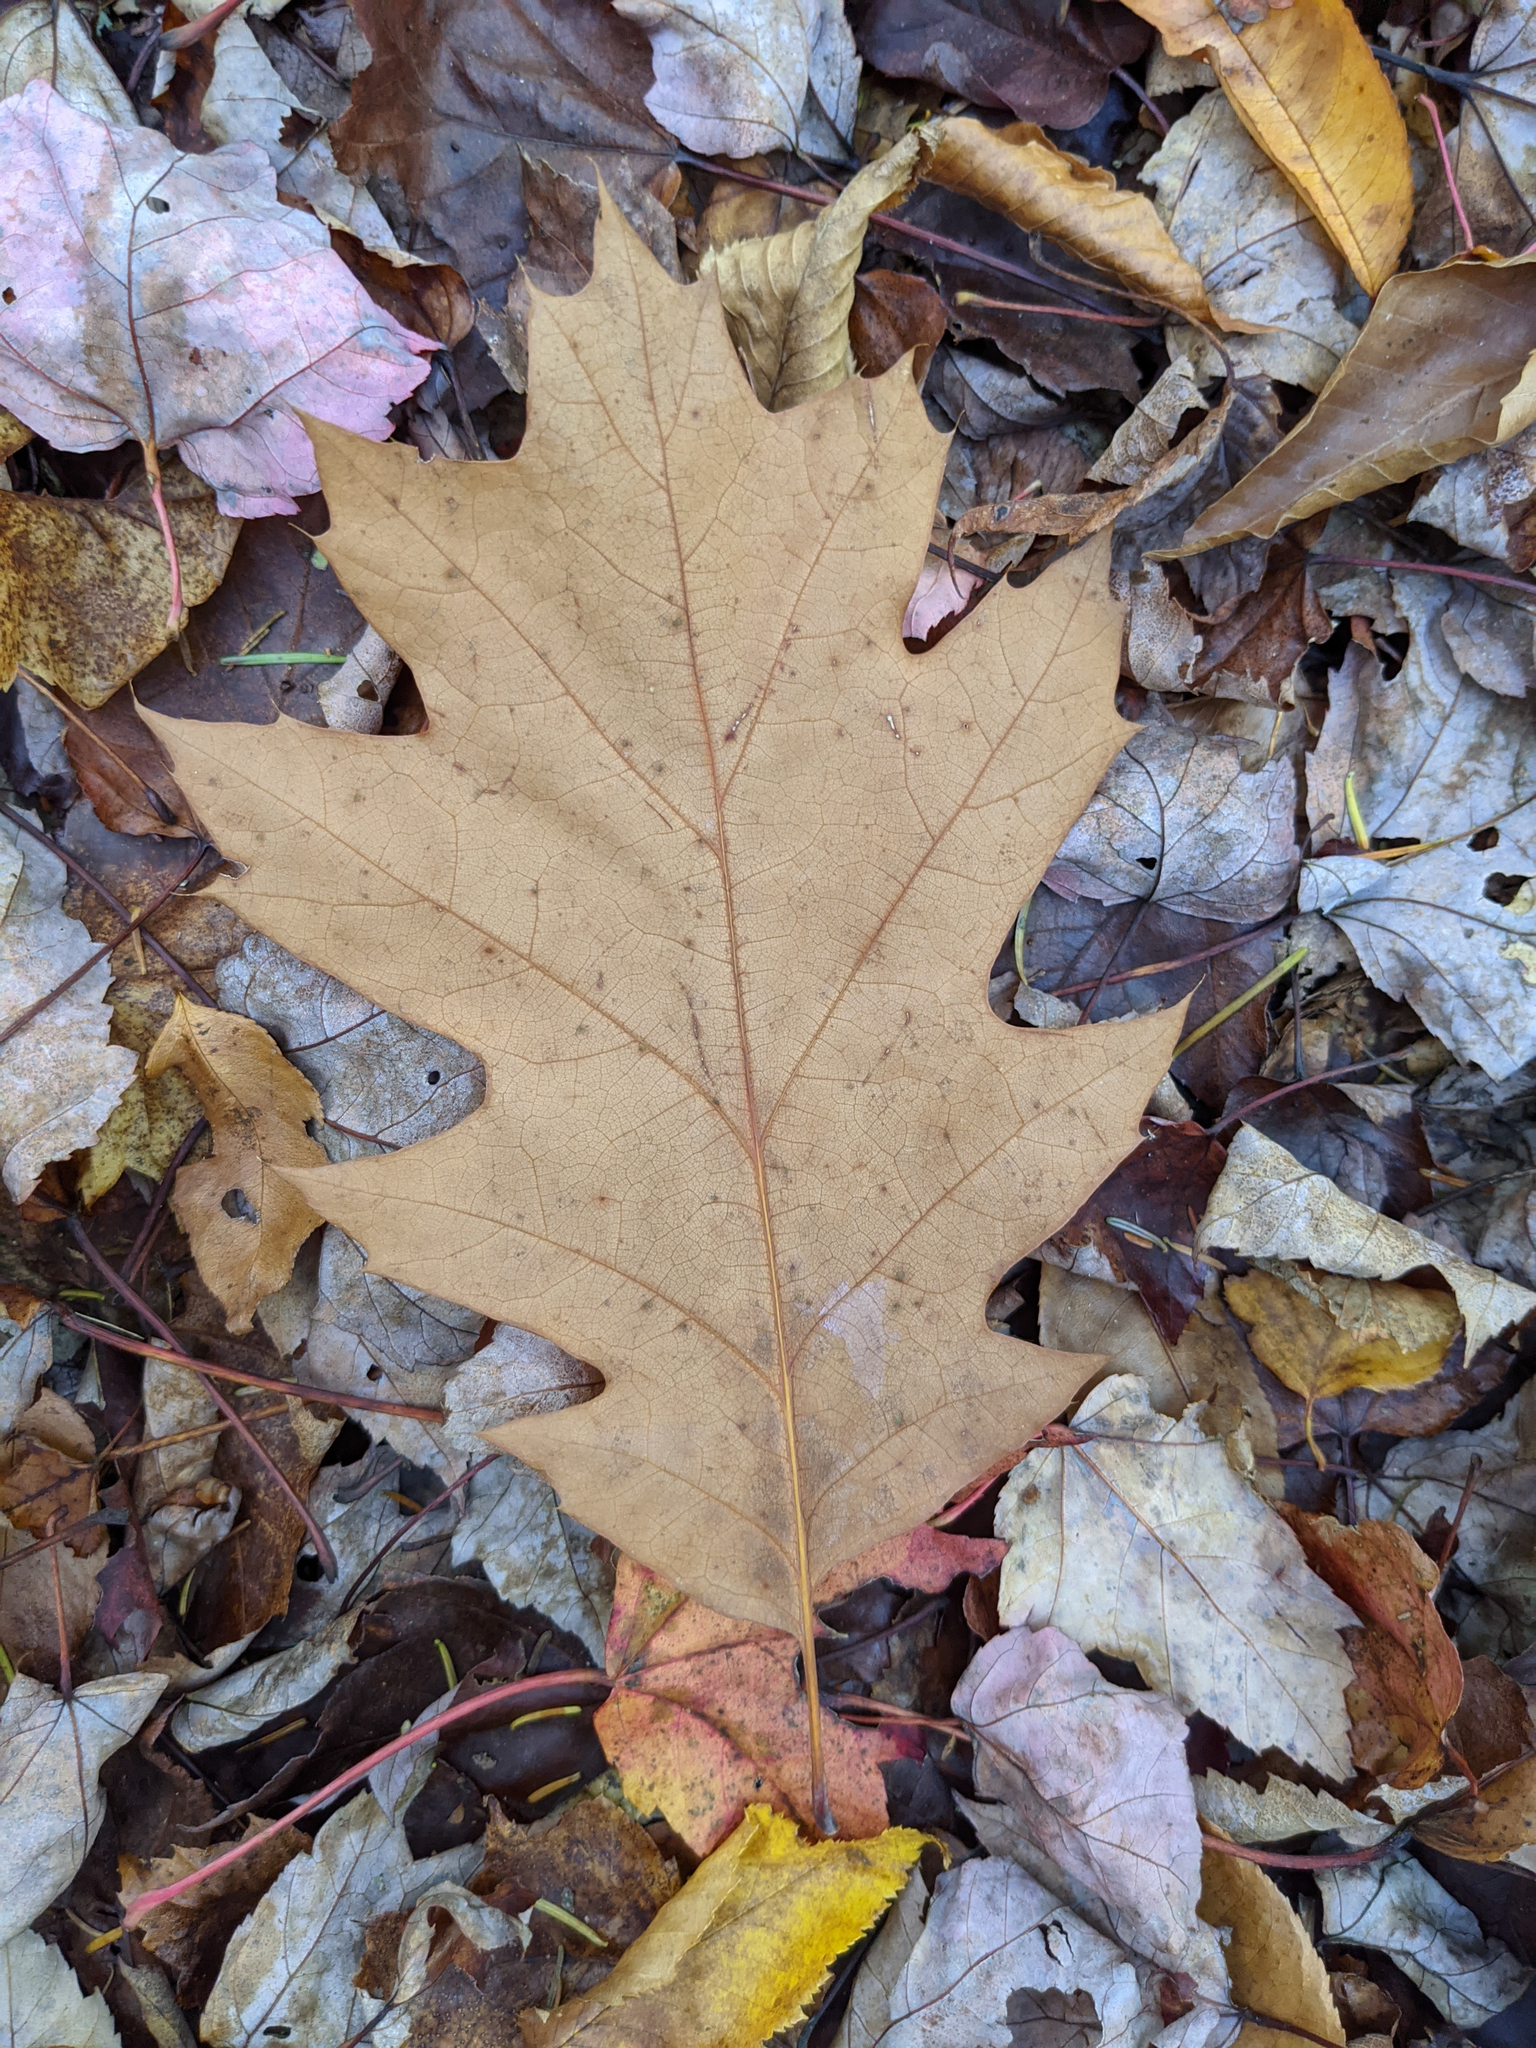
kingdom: Plantae
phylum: Tracheophyta
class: Magnoliopsida
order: Fagales
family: Fagaceae
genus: Quercus
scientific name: Quercus rubra
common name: Red oak
